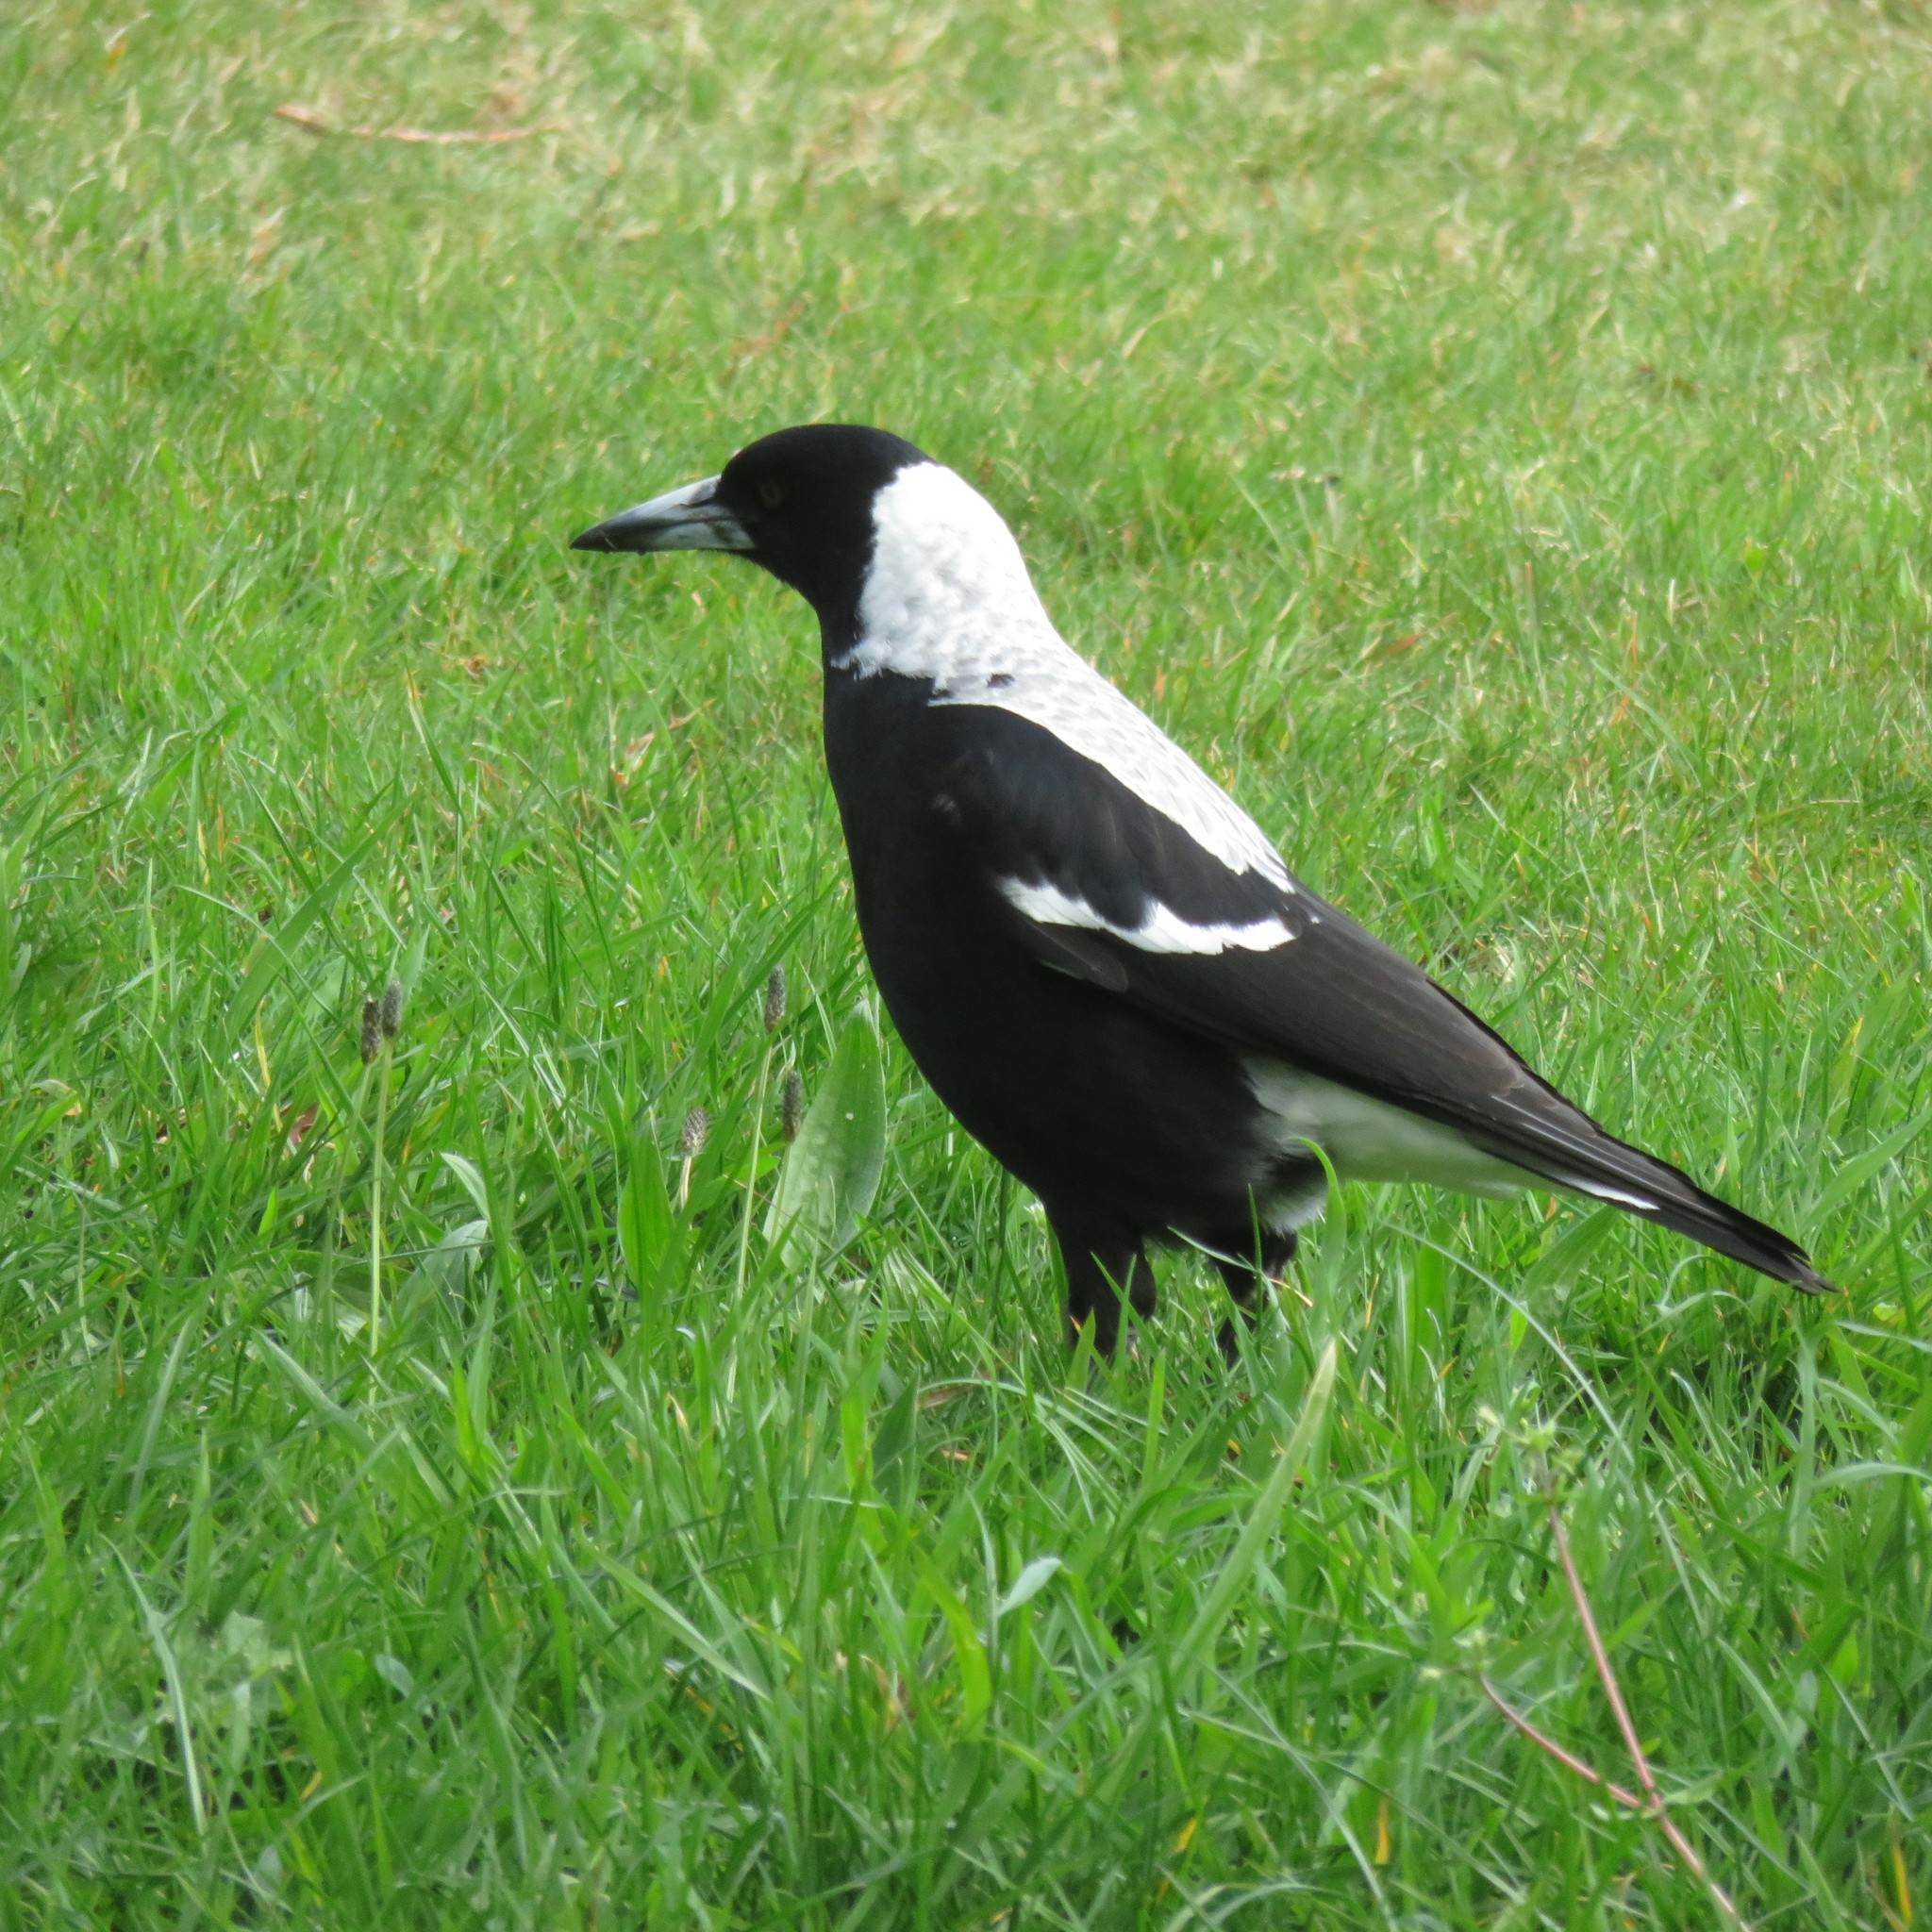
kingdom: Animalia
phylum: Chordata
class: Aves
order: Passeriformes
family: Cracticidae
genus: Gymnorhina
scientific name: Gymnorhina tibicen
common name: Australian magpie
